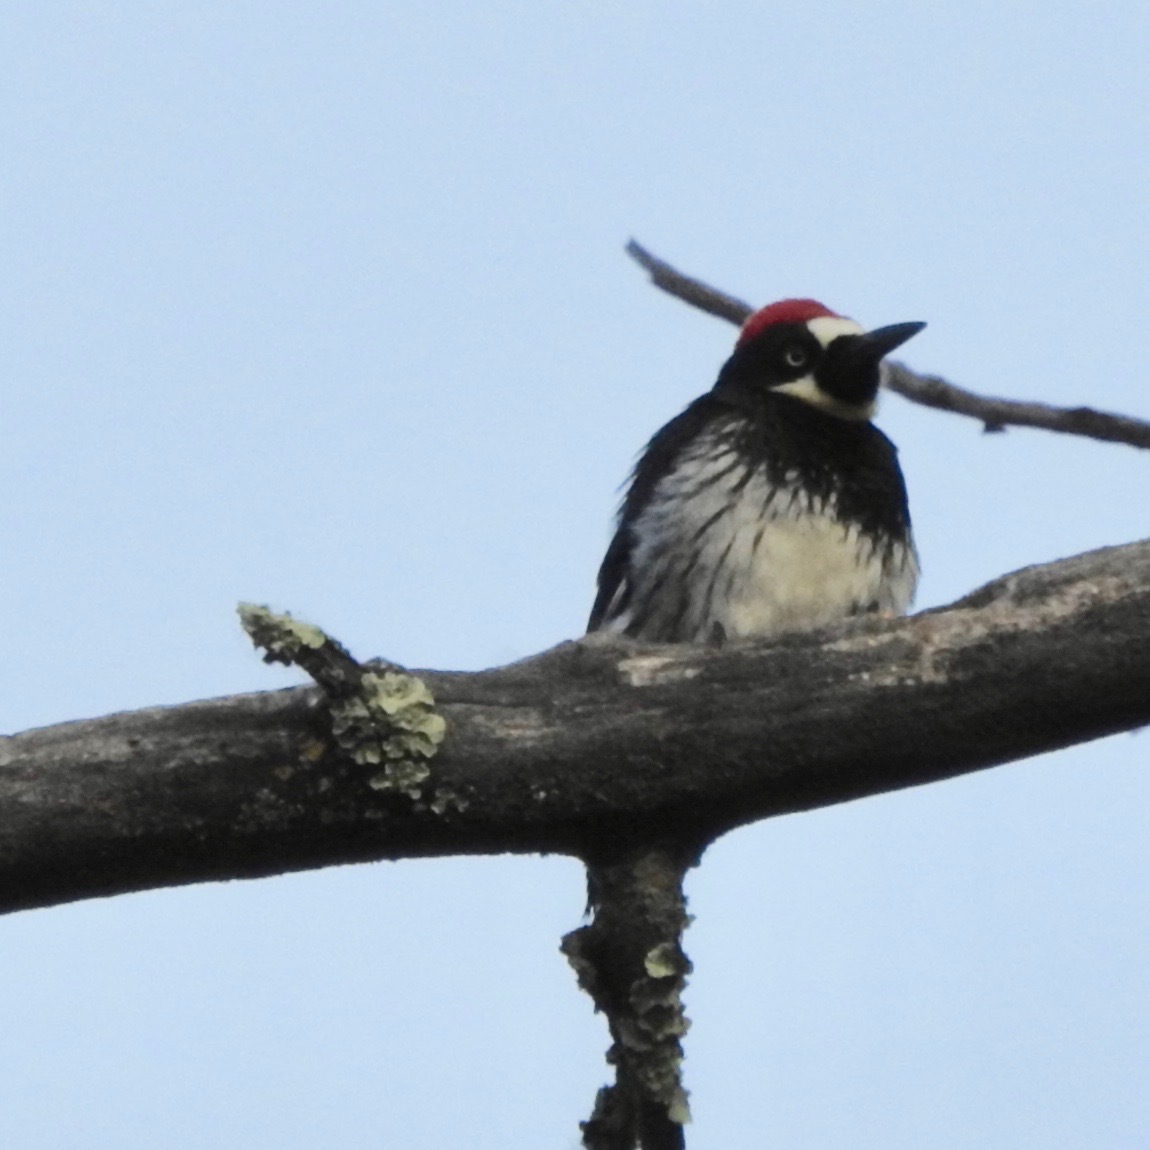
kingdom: Animalia
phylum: Chordata
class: Aves
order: Piciformes
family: Picidae
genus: Melanerpes
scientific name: Melanerpes formicivorus
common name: Acorn woodpecker
